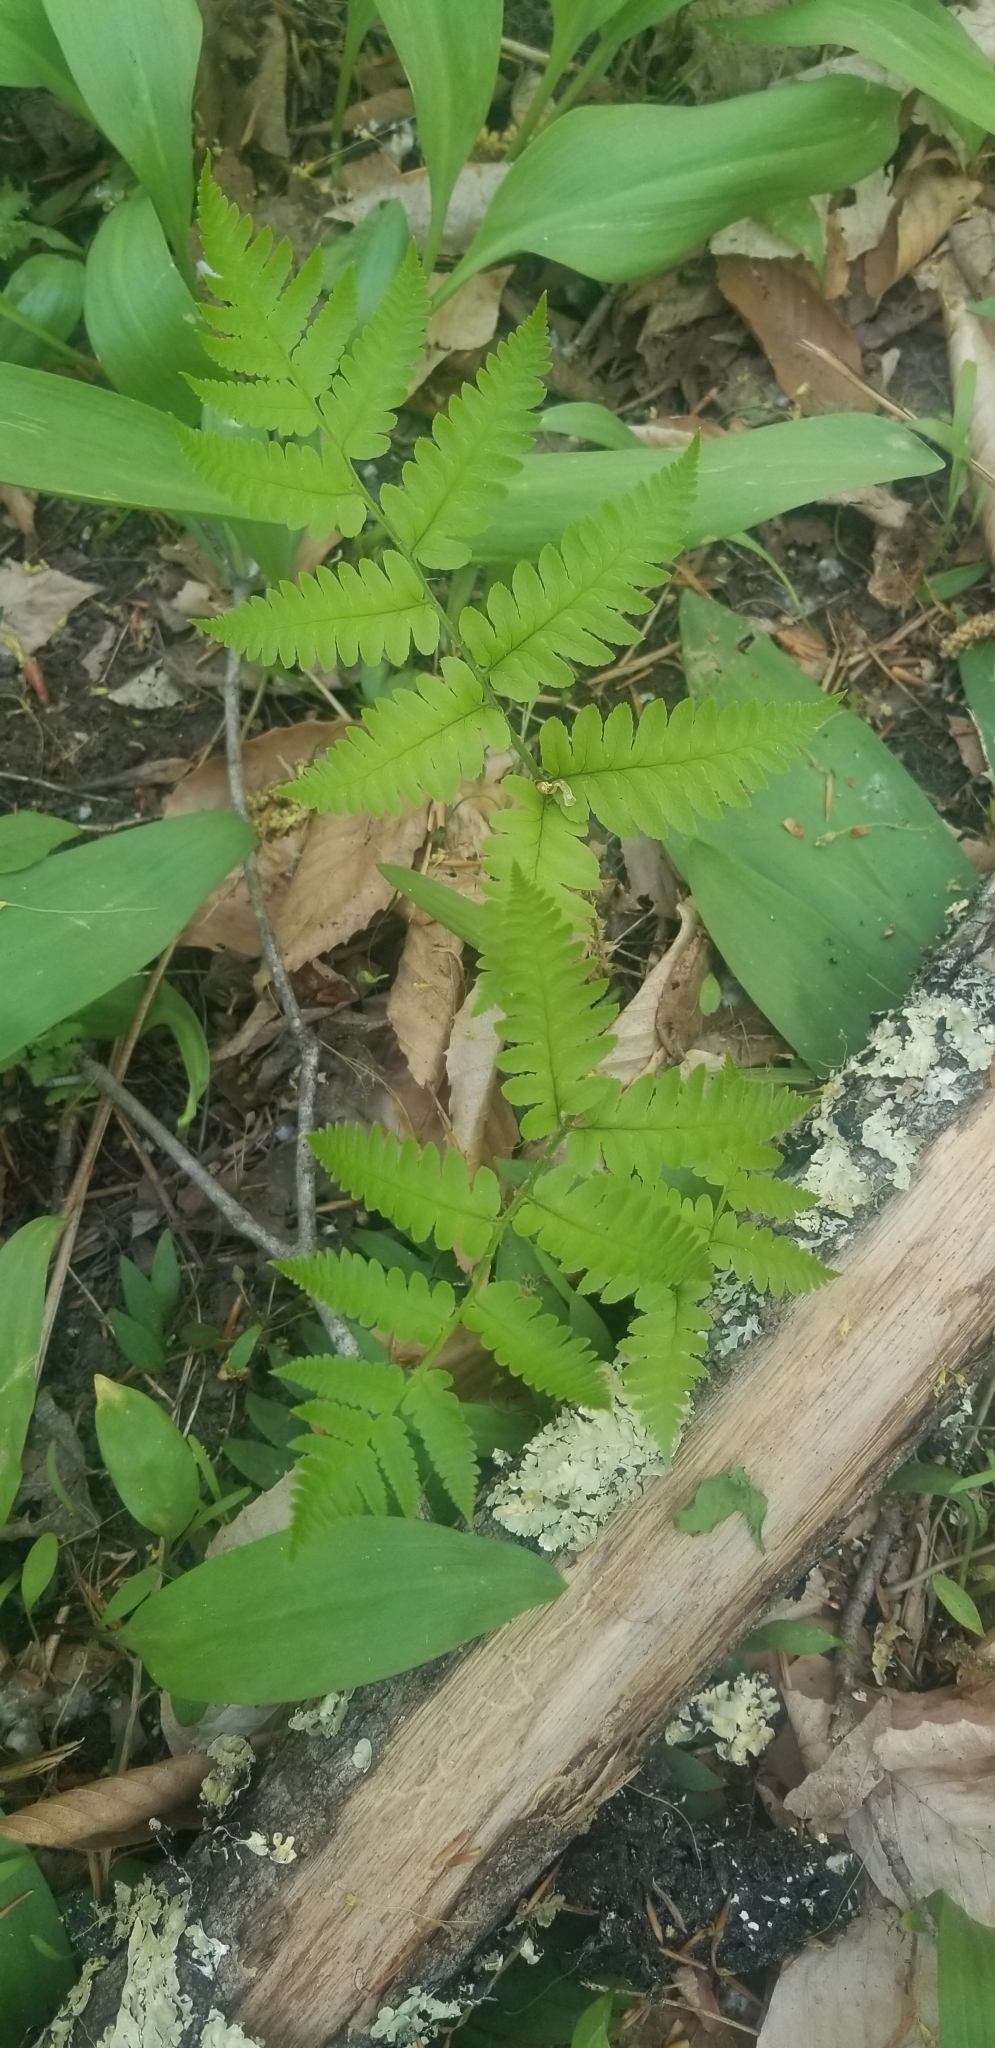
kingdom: Plantae
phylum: Tracheophyta
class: Polypodiopsida
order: Polypodiales
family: Dryopteridaceae
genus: Dryopteris
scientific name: Dryopteris goldieana
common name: Goldie's fern
